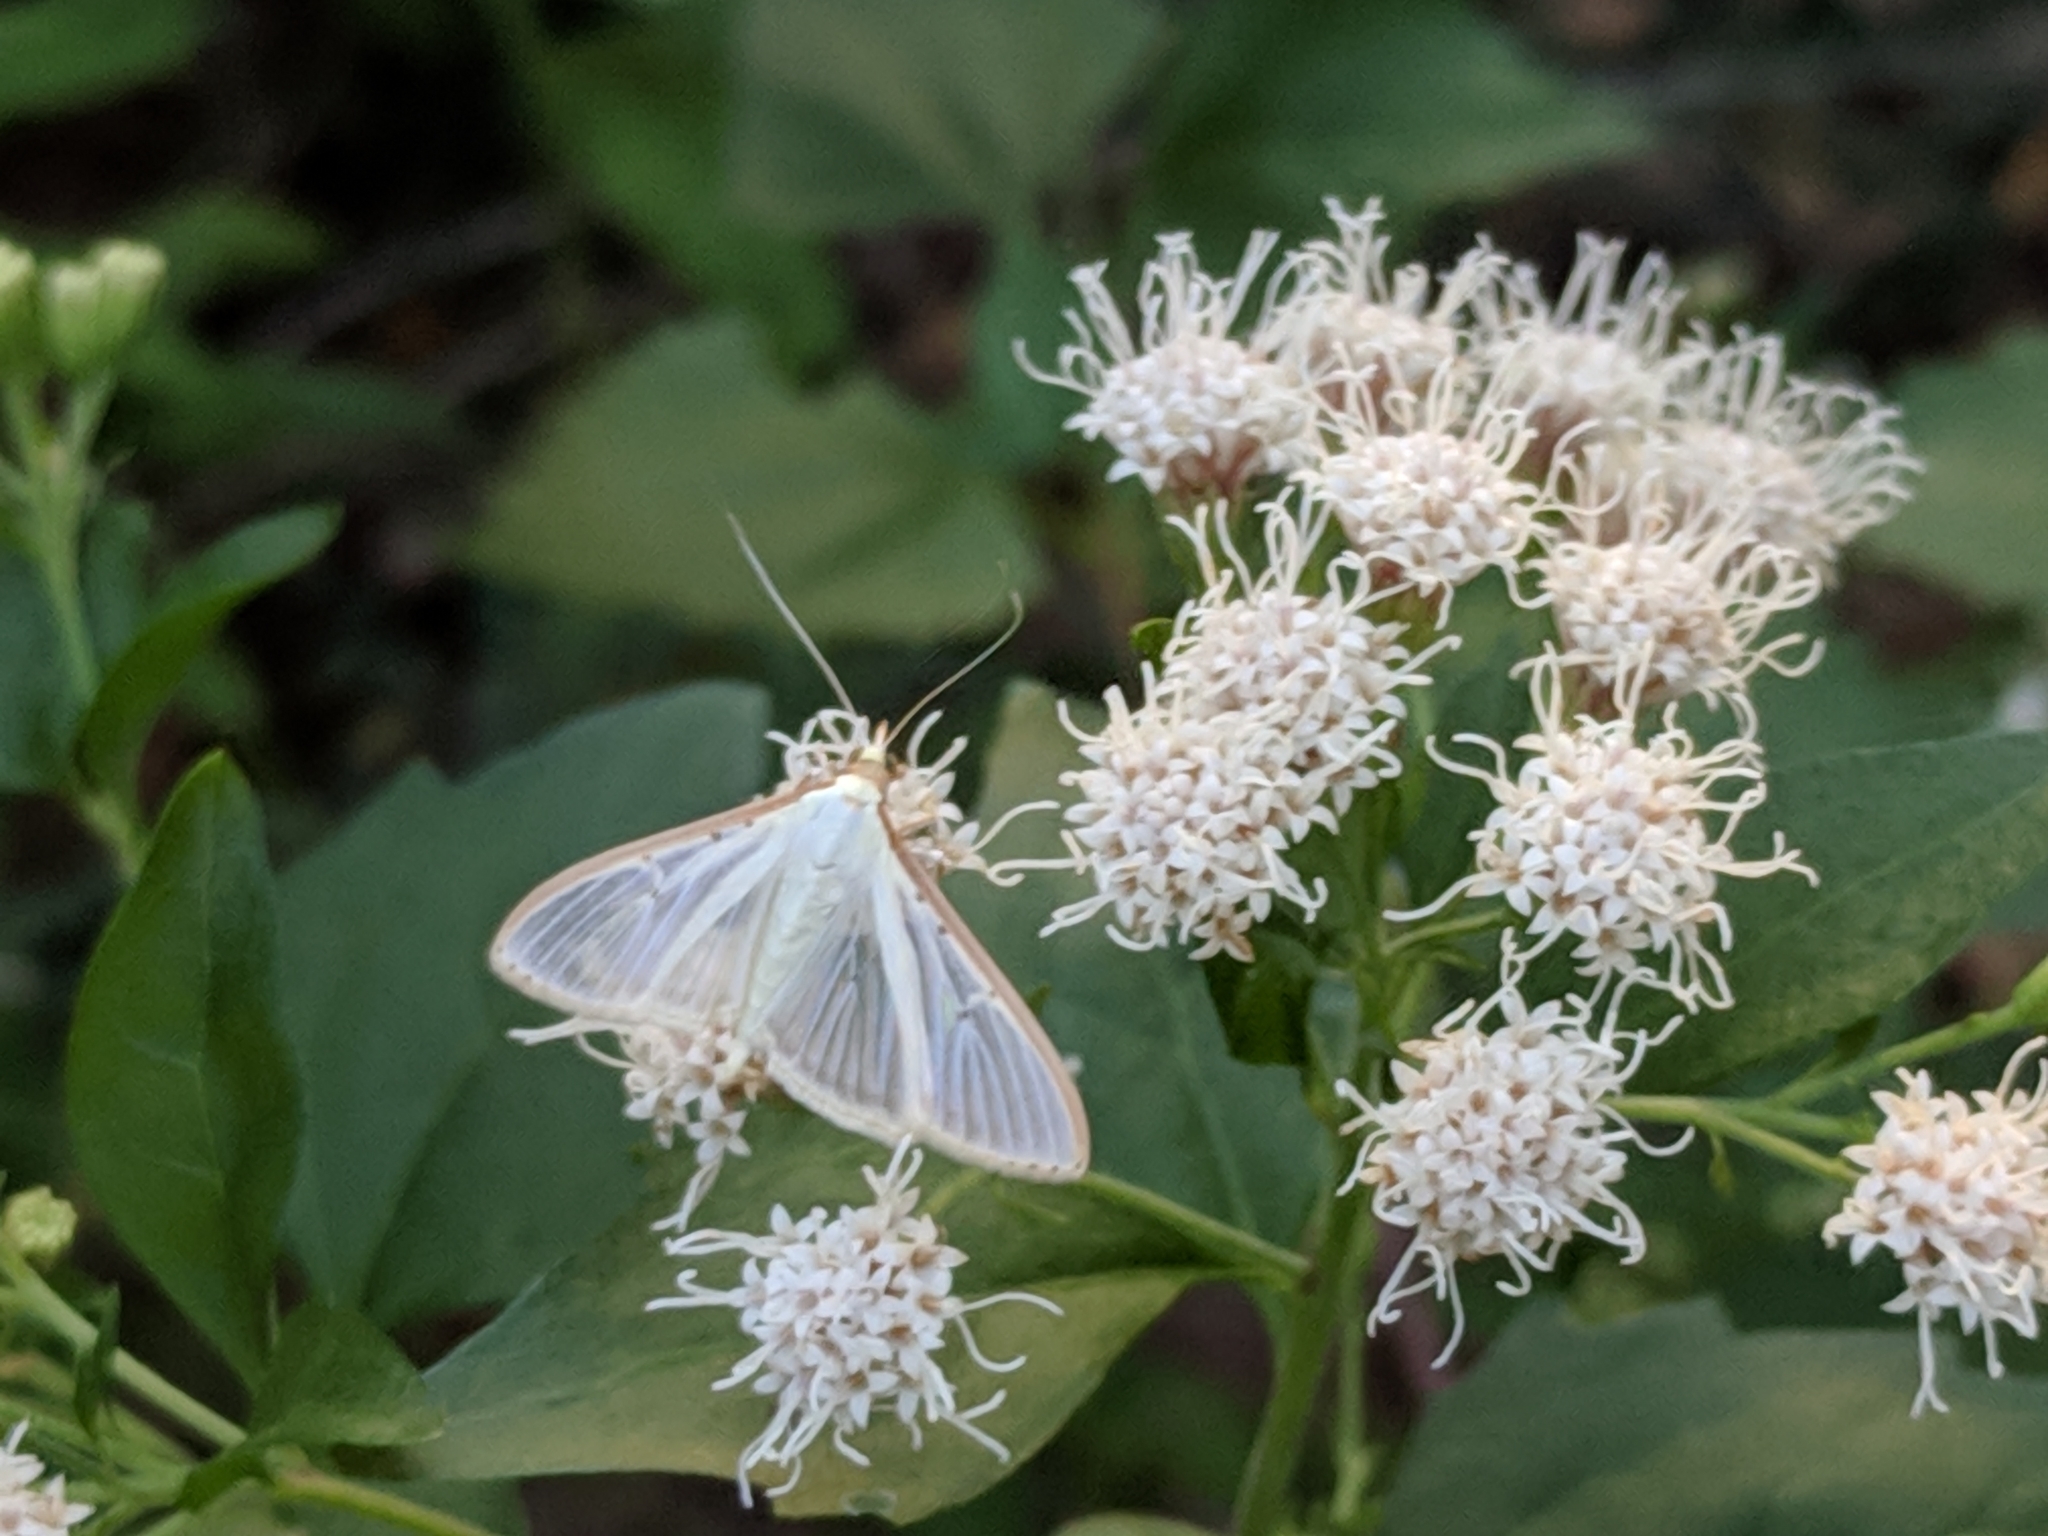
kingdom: Animalia
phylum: Arthropoda
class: Insecta
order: Lepidoptera
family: Crambidae
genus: Palpita
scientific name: Palpita quadristigmalis
